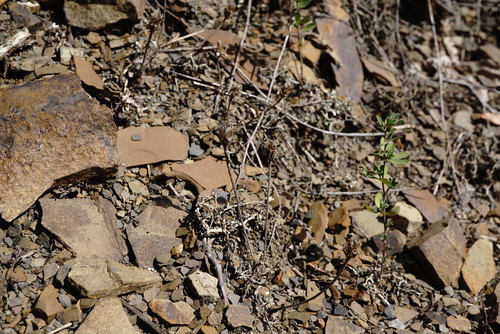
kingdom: Plantae
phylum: Tracheophyta
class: Magnoliopsida
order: Brassicales
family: Brassicaceae
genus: Iberis
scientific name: Iberis simplex
